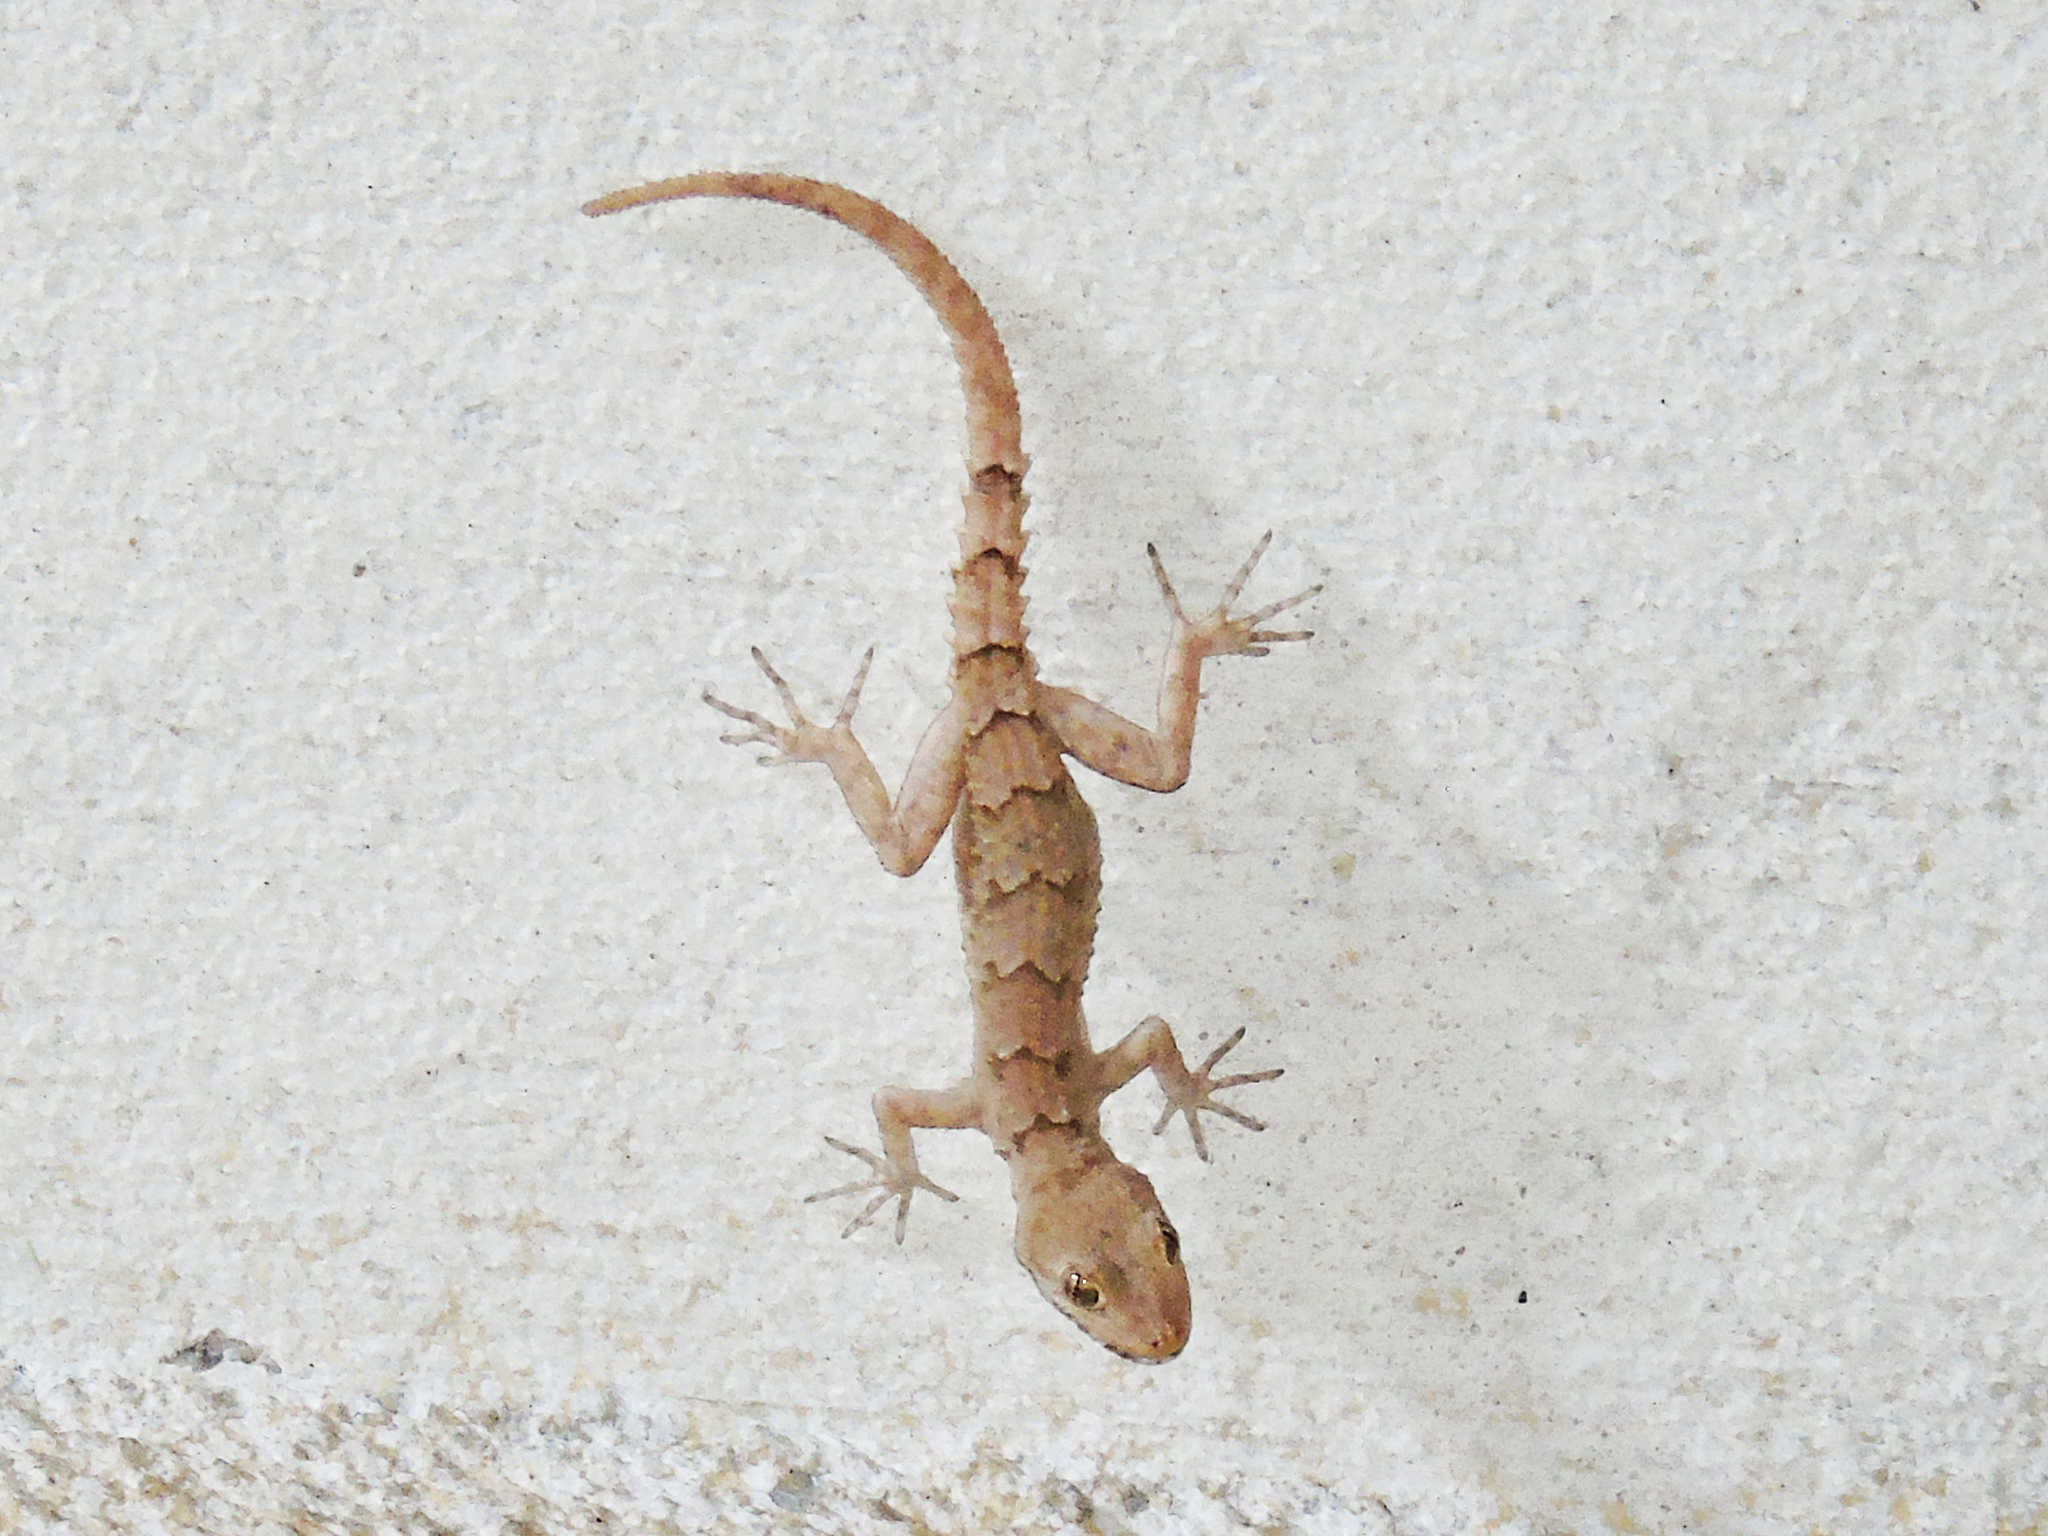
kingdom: Animalia
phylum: Chordata
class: Squamata
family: Gekkonidae
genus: Mediodactylus
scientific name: Mediodactylus heterocercus
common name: Asia minor thin-toed gecko
